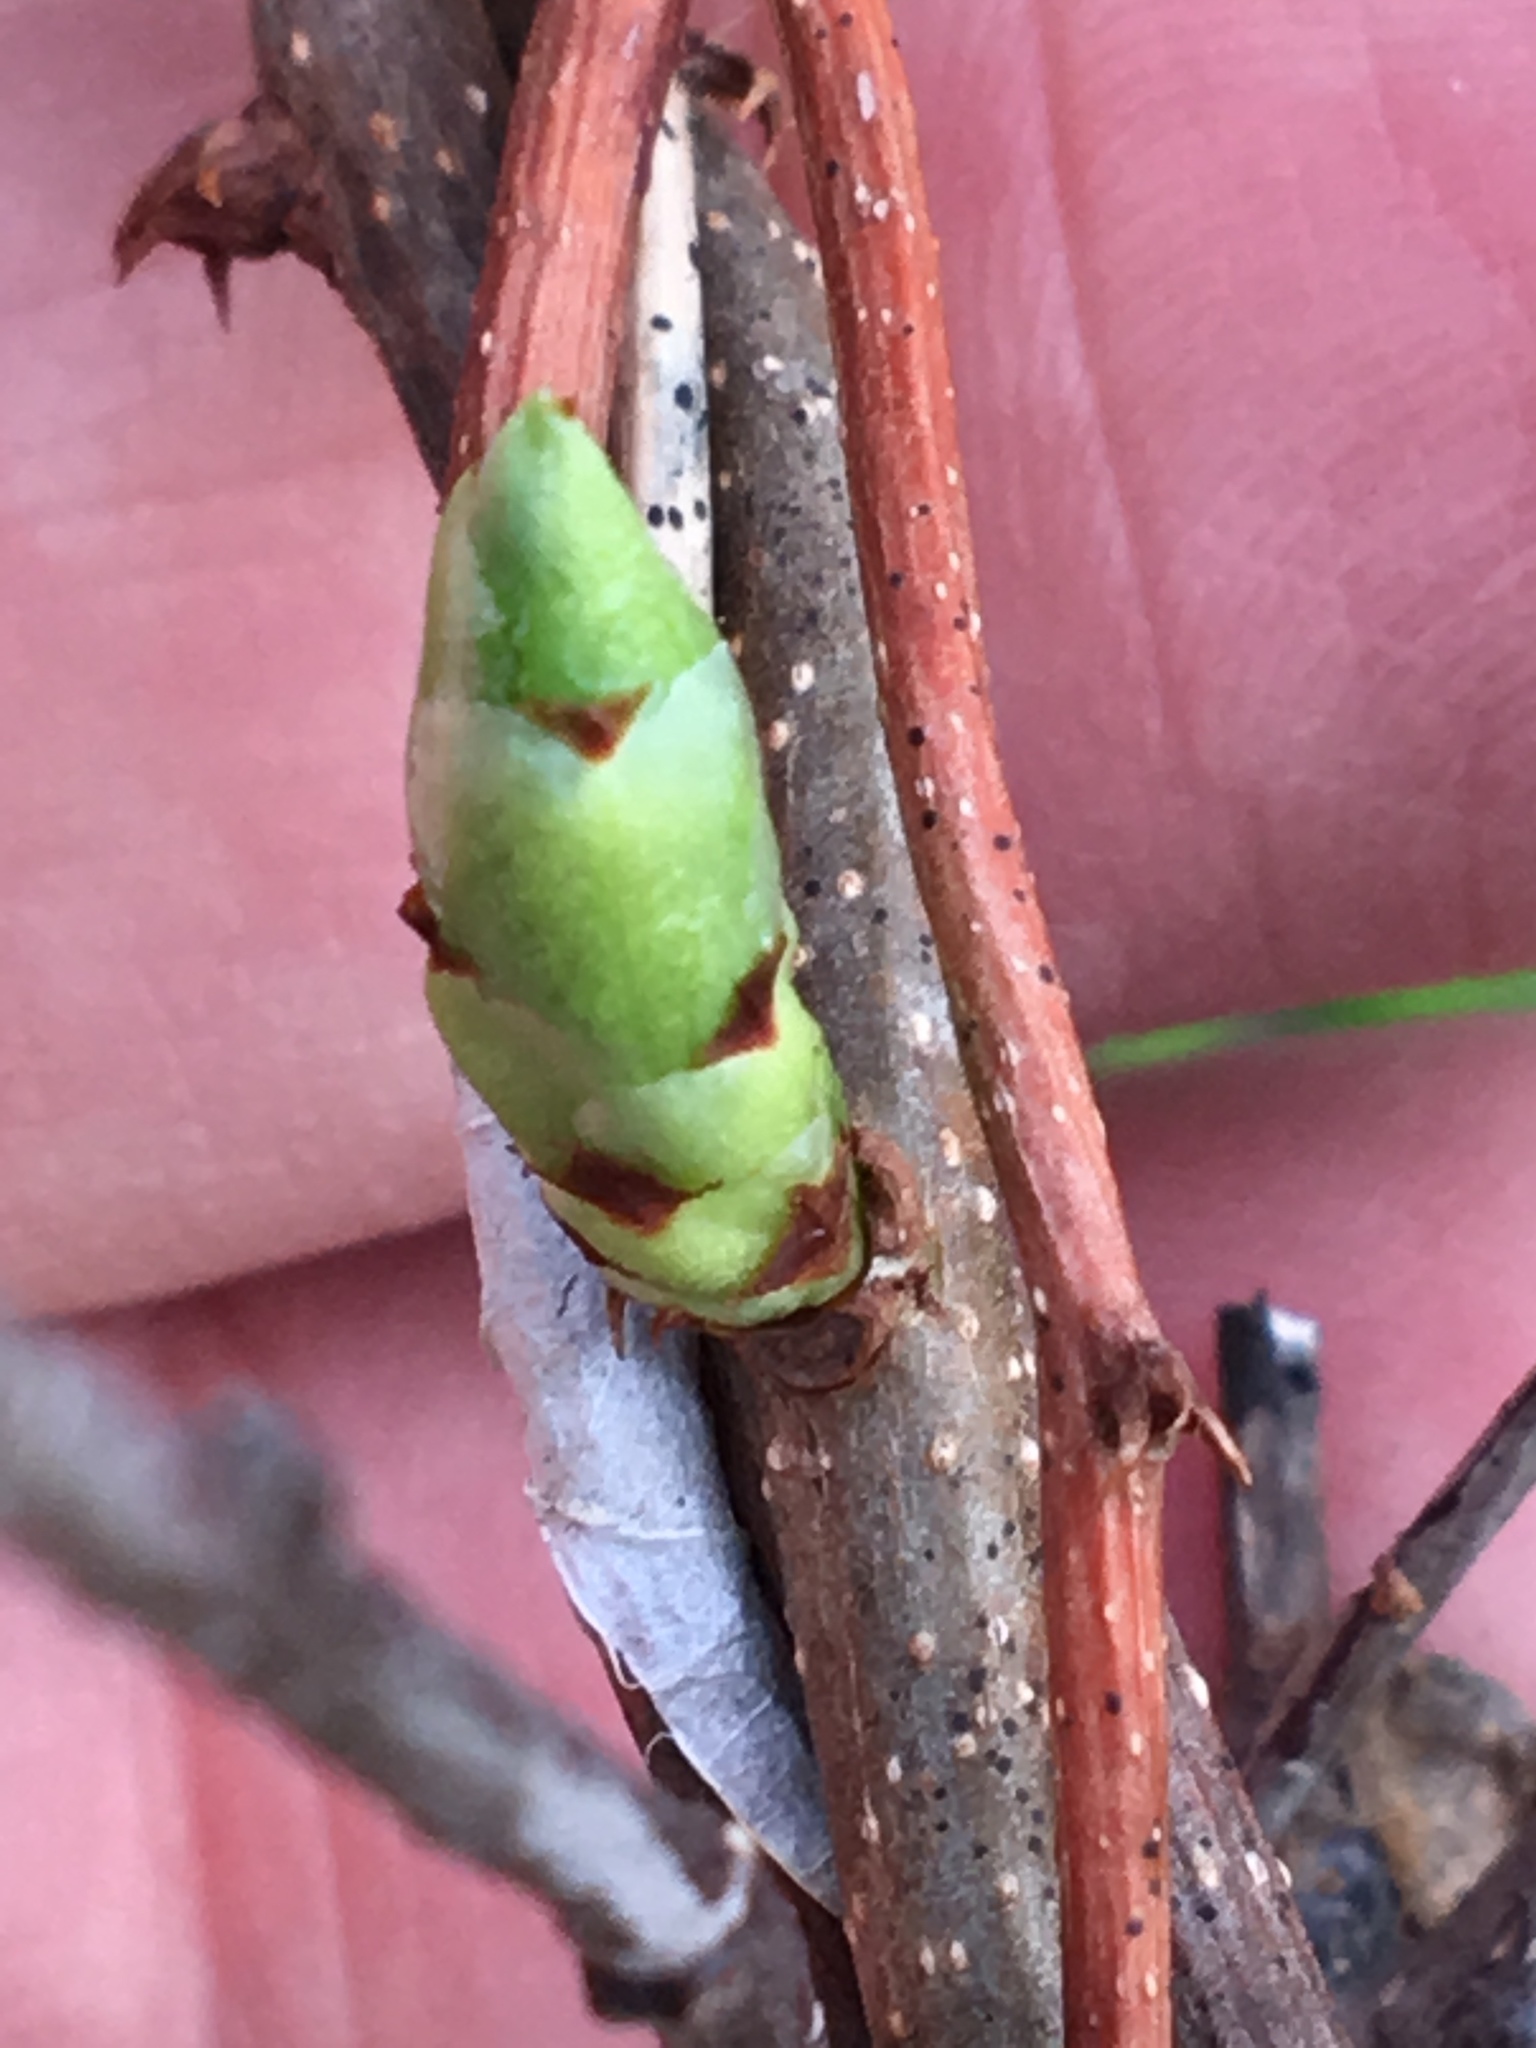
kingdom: Plantae
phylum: Tracheophyta
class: Magnoliopsida
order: Celastrales
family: Celastraceae
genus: Celastrus
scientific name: Celastrus orbiculatus
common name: Oriental bittersweet
